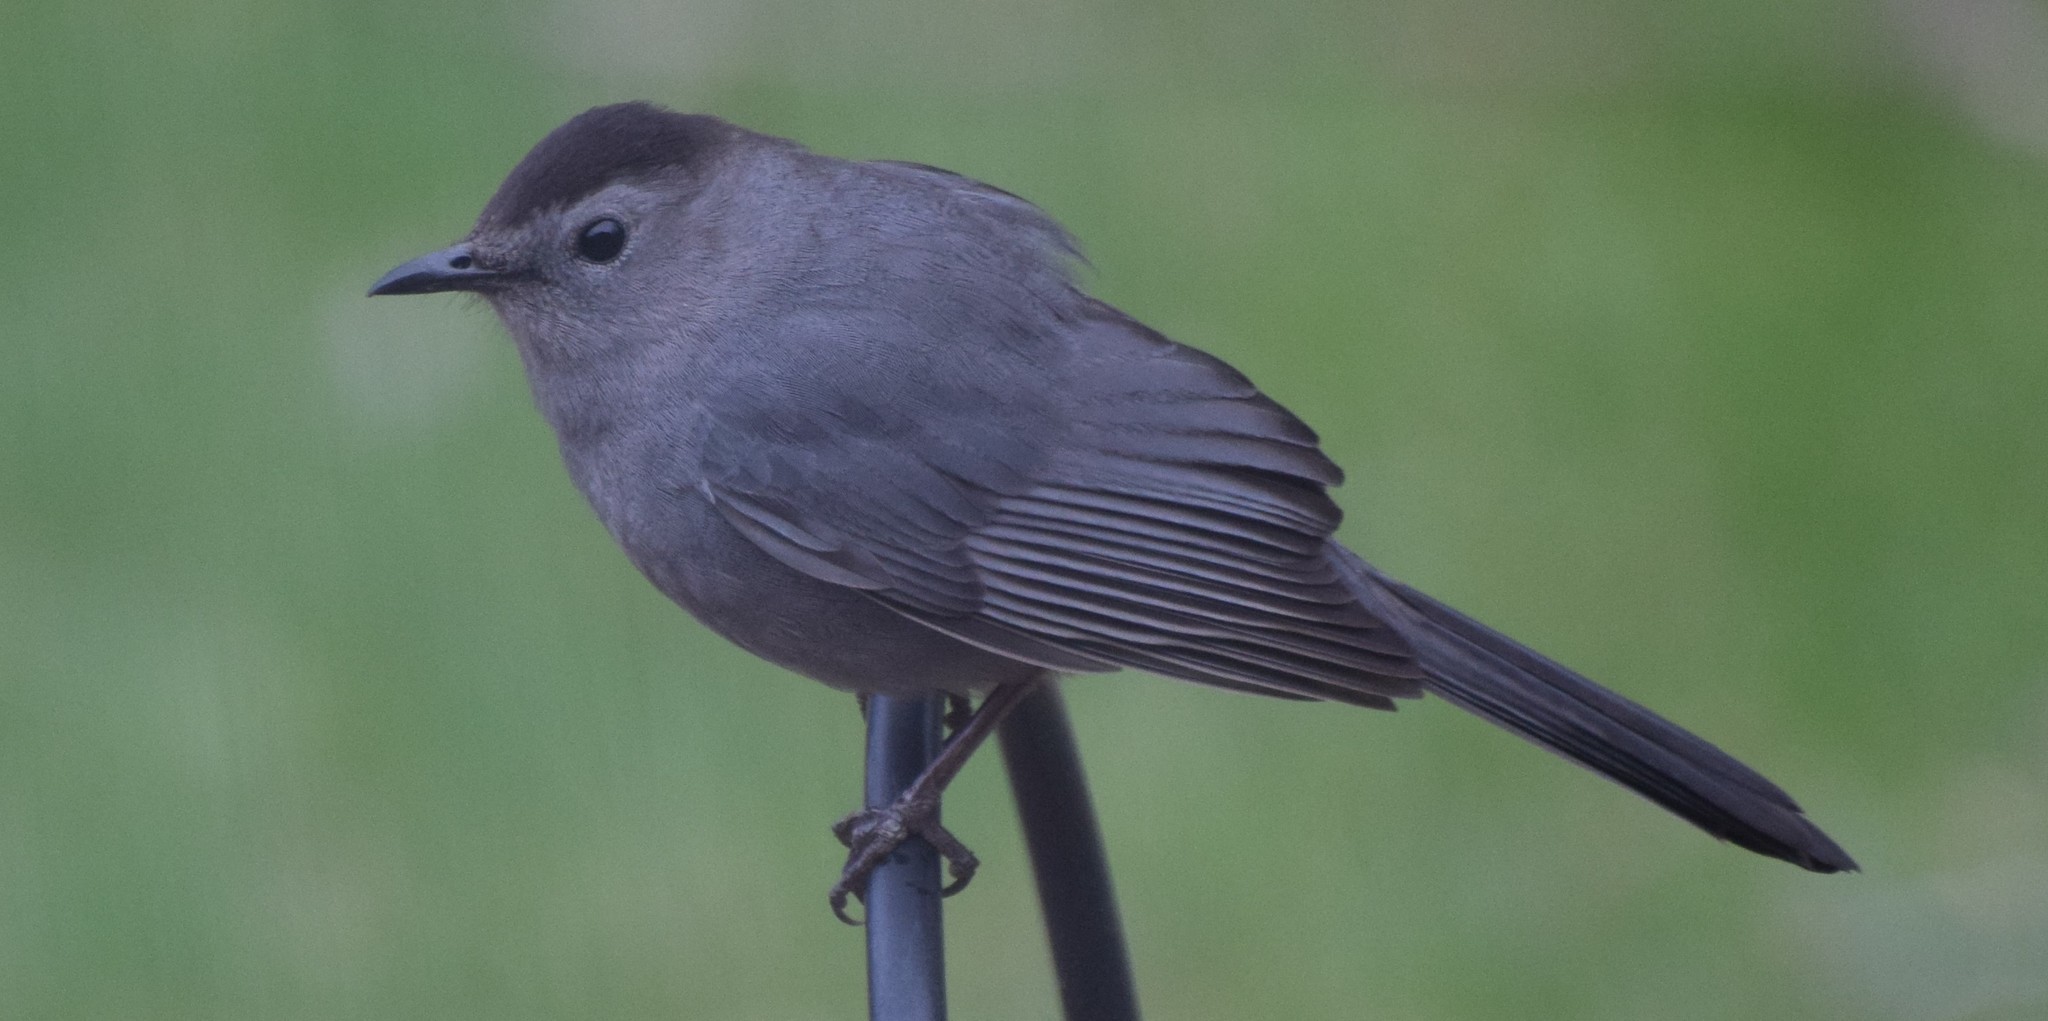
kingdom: Animalia
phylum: Chordata
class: Aves
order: Passeriformes
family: Mimidae
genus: Dumetella
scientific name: Dumetella carolinensis
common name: Gray catbird
